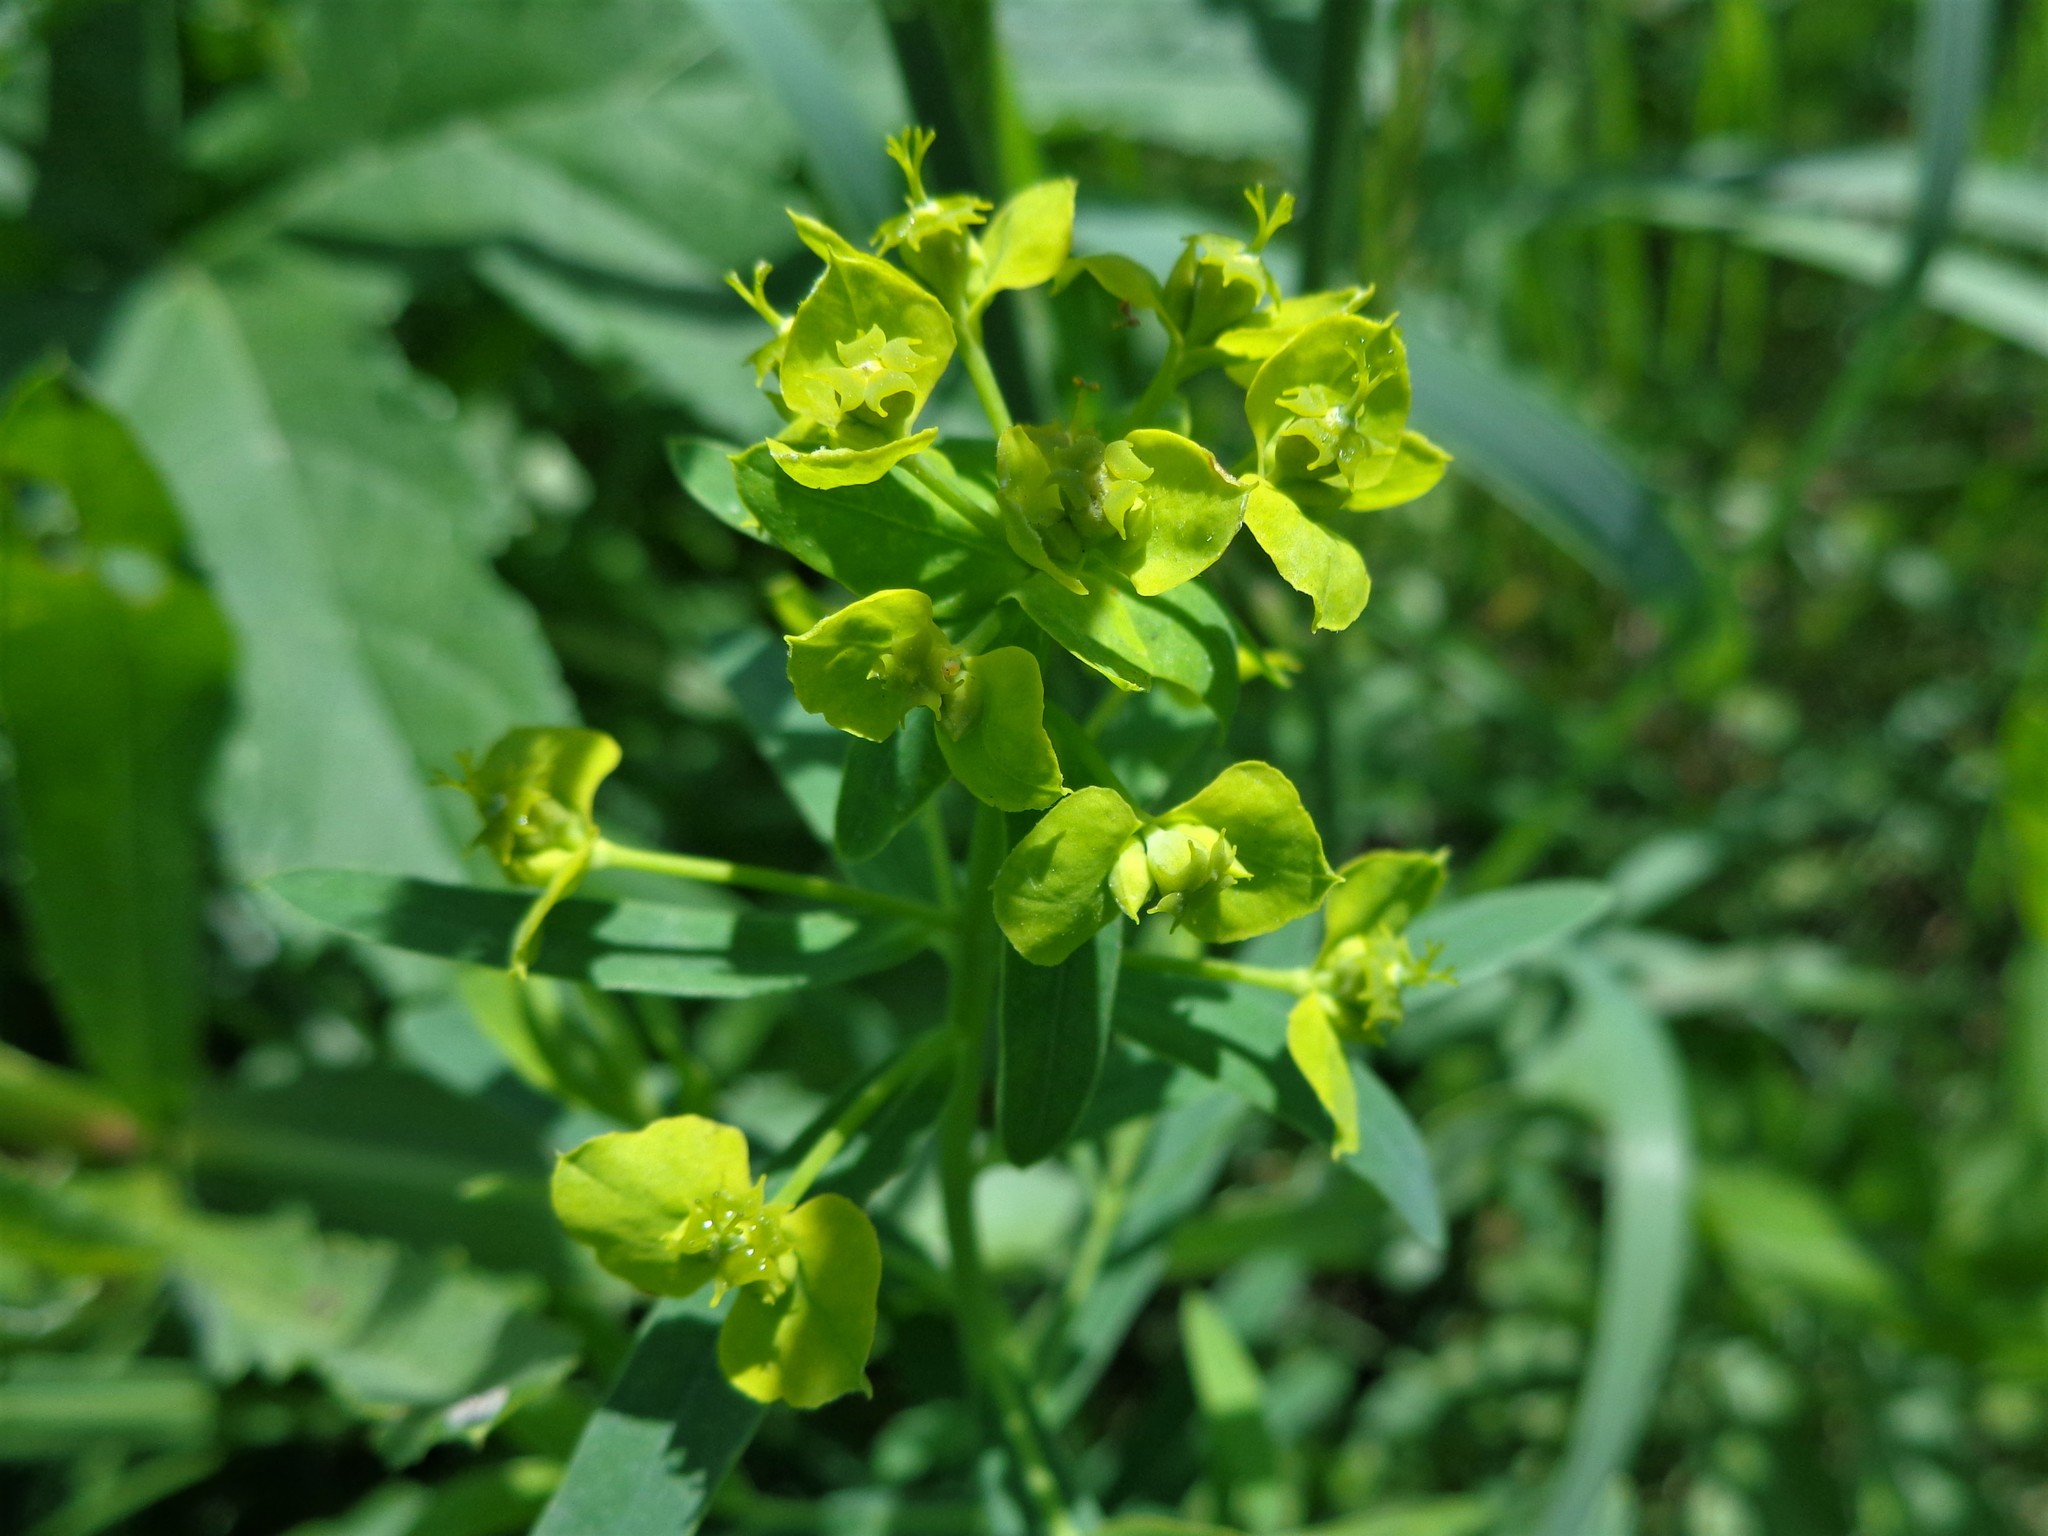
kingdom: Plantae
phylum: Tracheophyta
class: Magnoliopsida
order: Malpighiales
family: Euphorbiaceae
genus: Euphorbia
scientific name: Euphorbia virgata
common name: Leafy spurge
